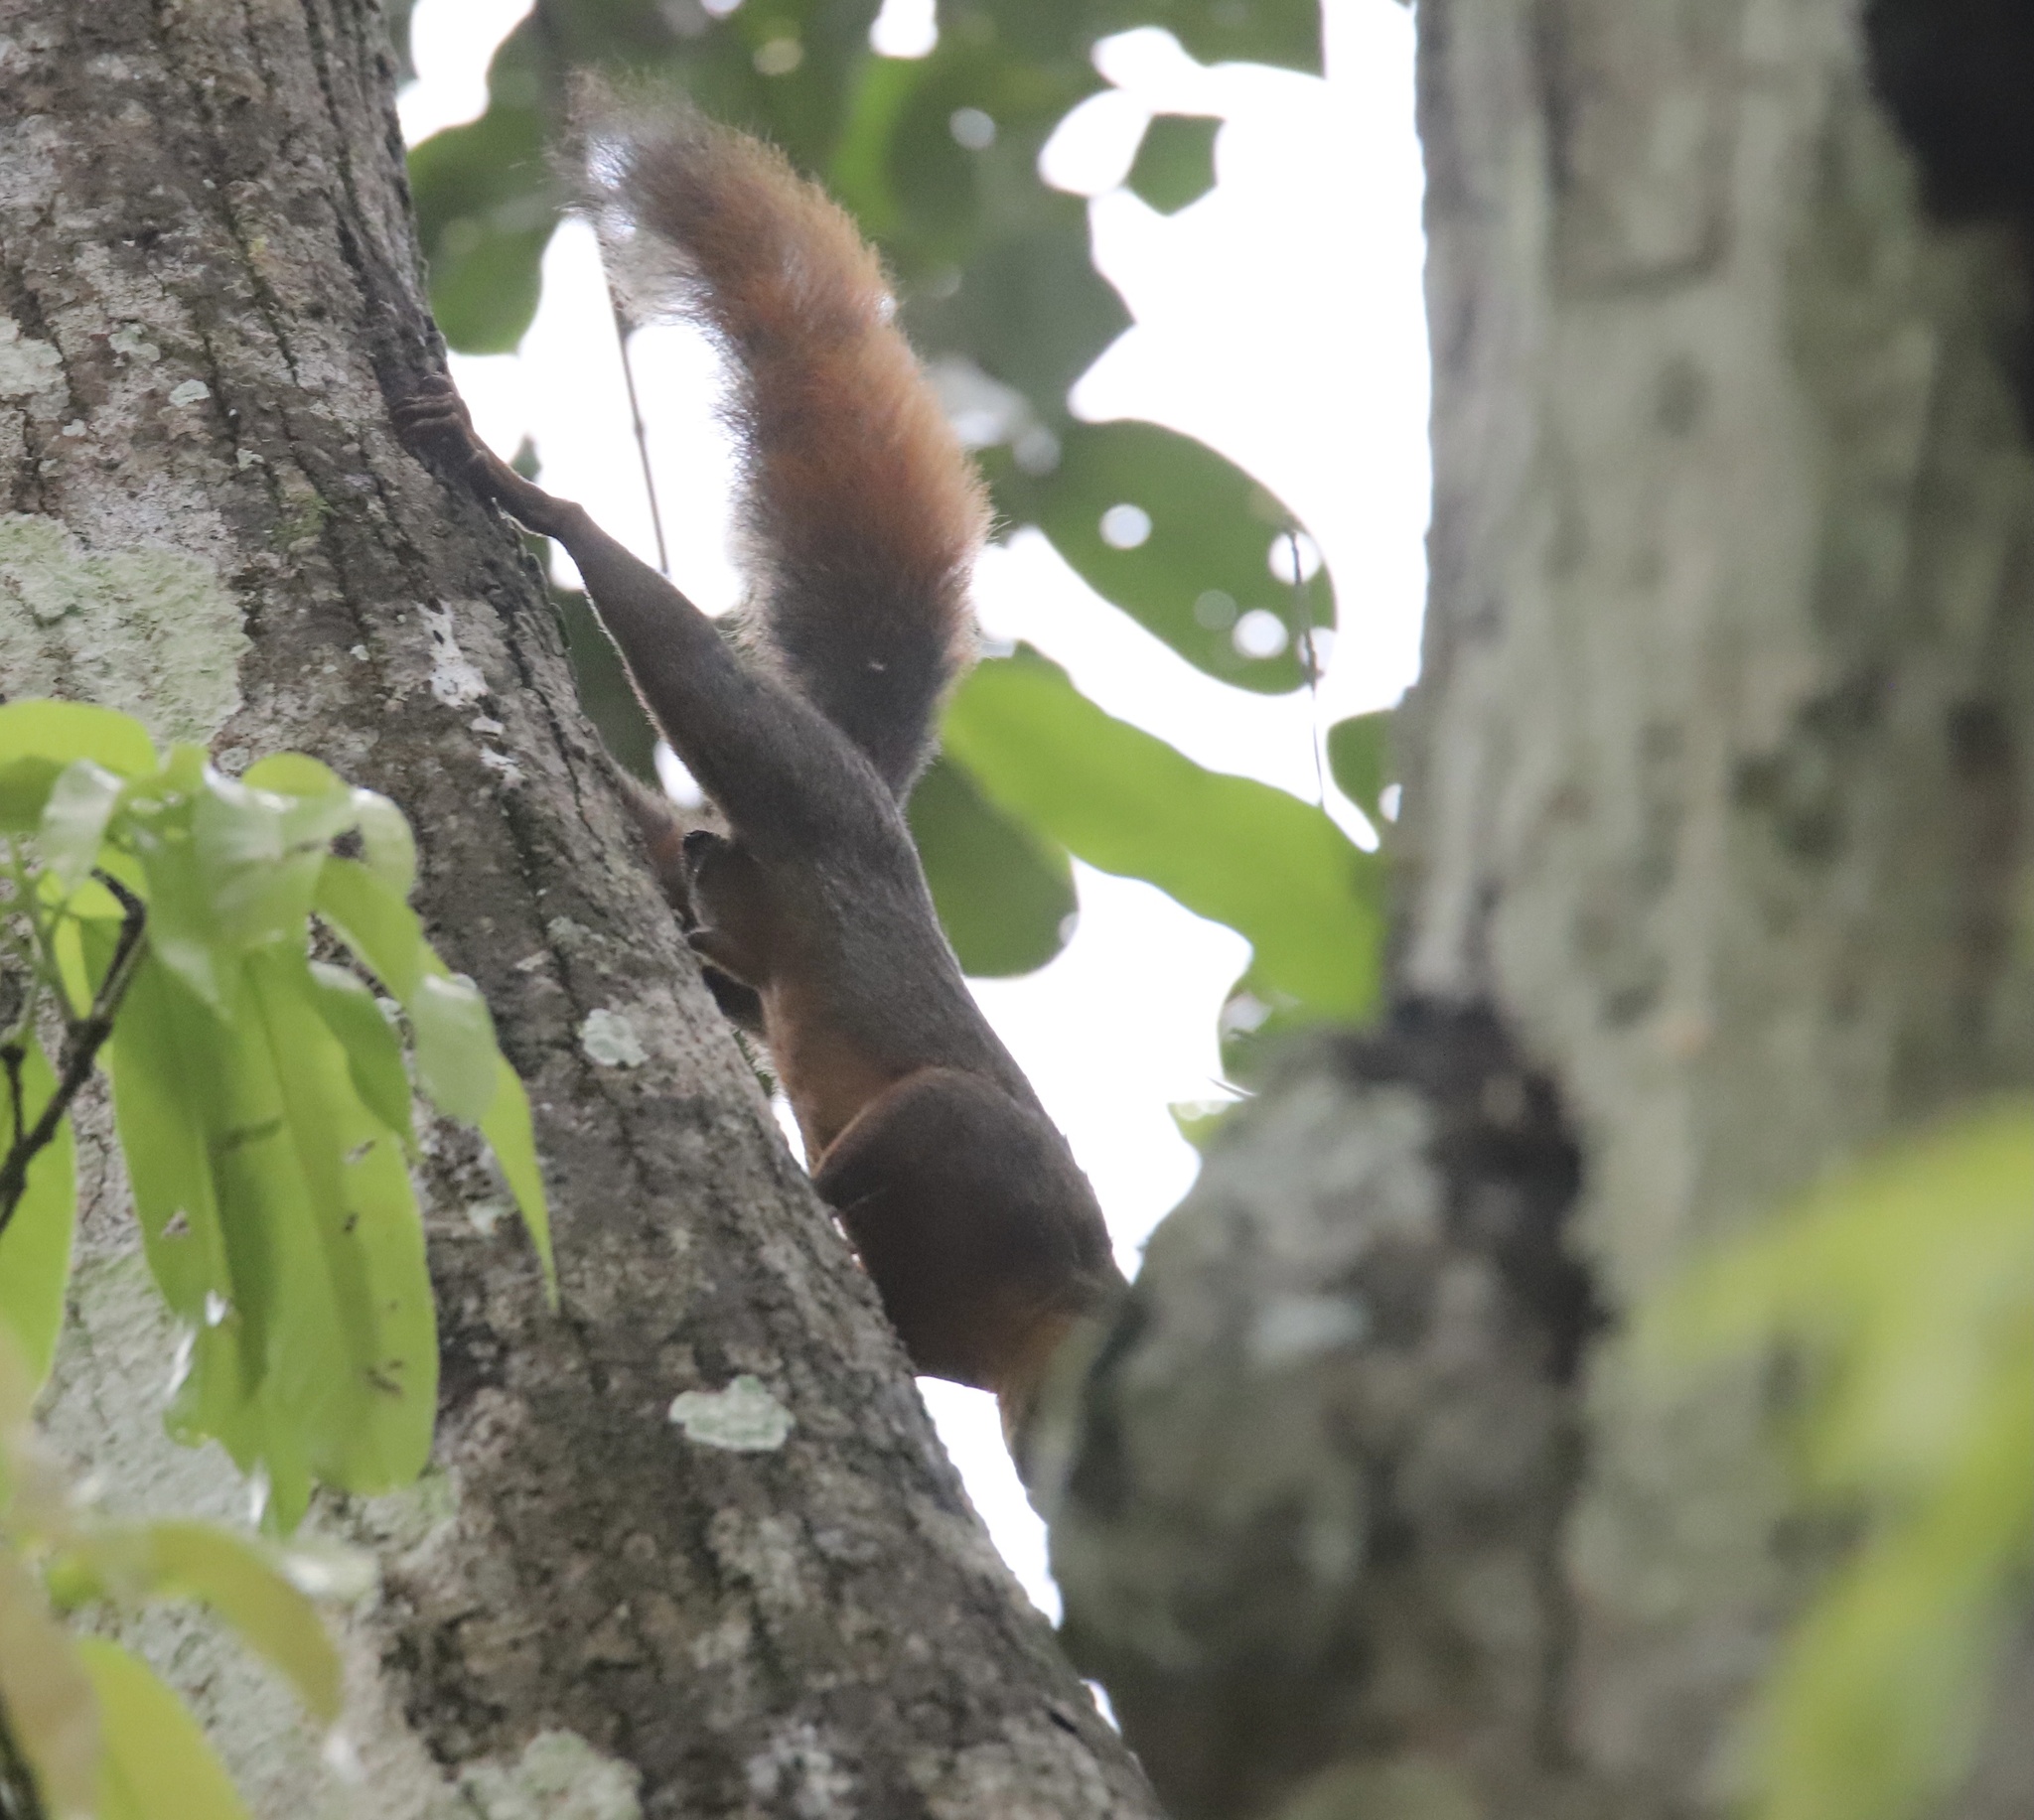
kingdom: Animalia
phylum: Chordata
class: Mammalia
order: Rodentia
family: Sciuridae
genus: Sciurus
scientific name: Sciurus granatensis
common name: Red-tailed squirrel
